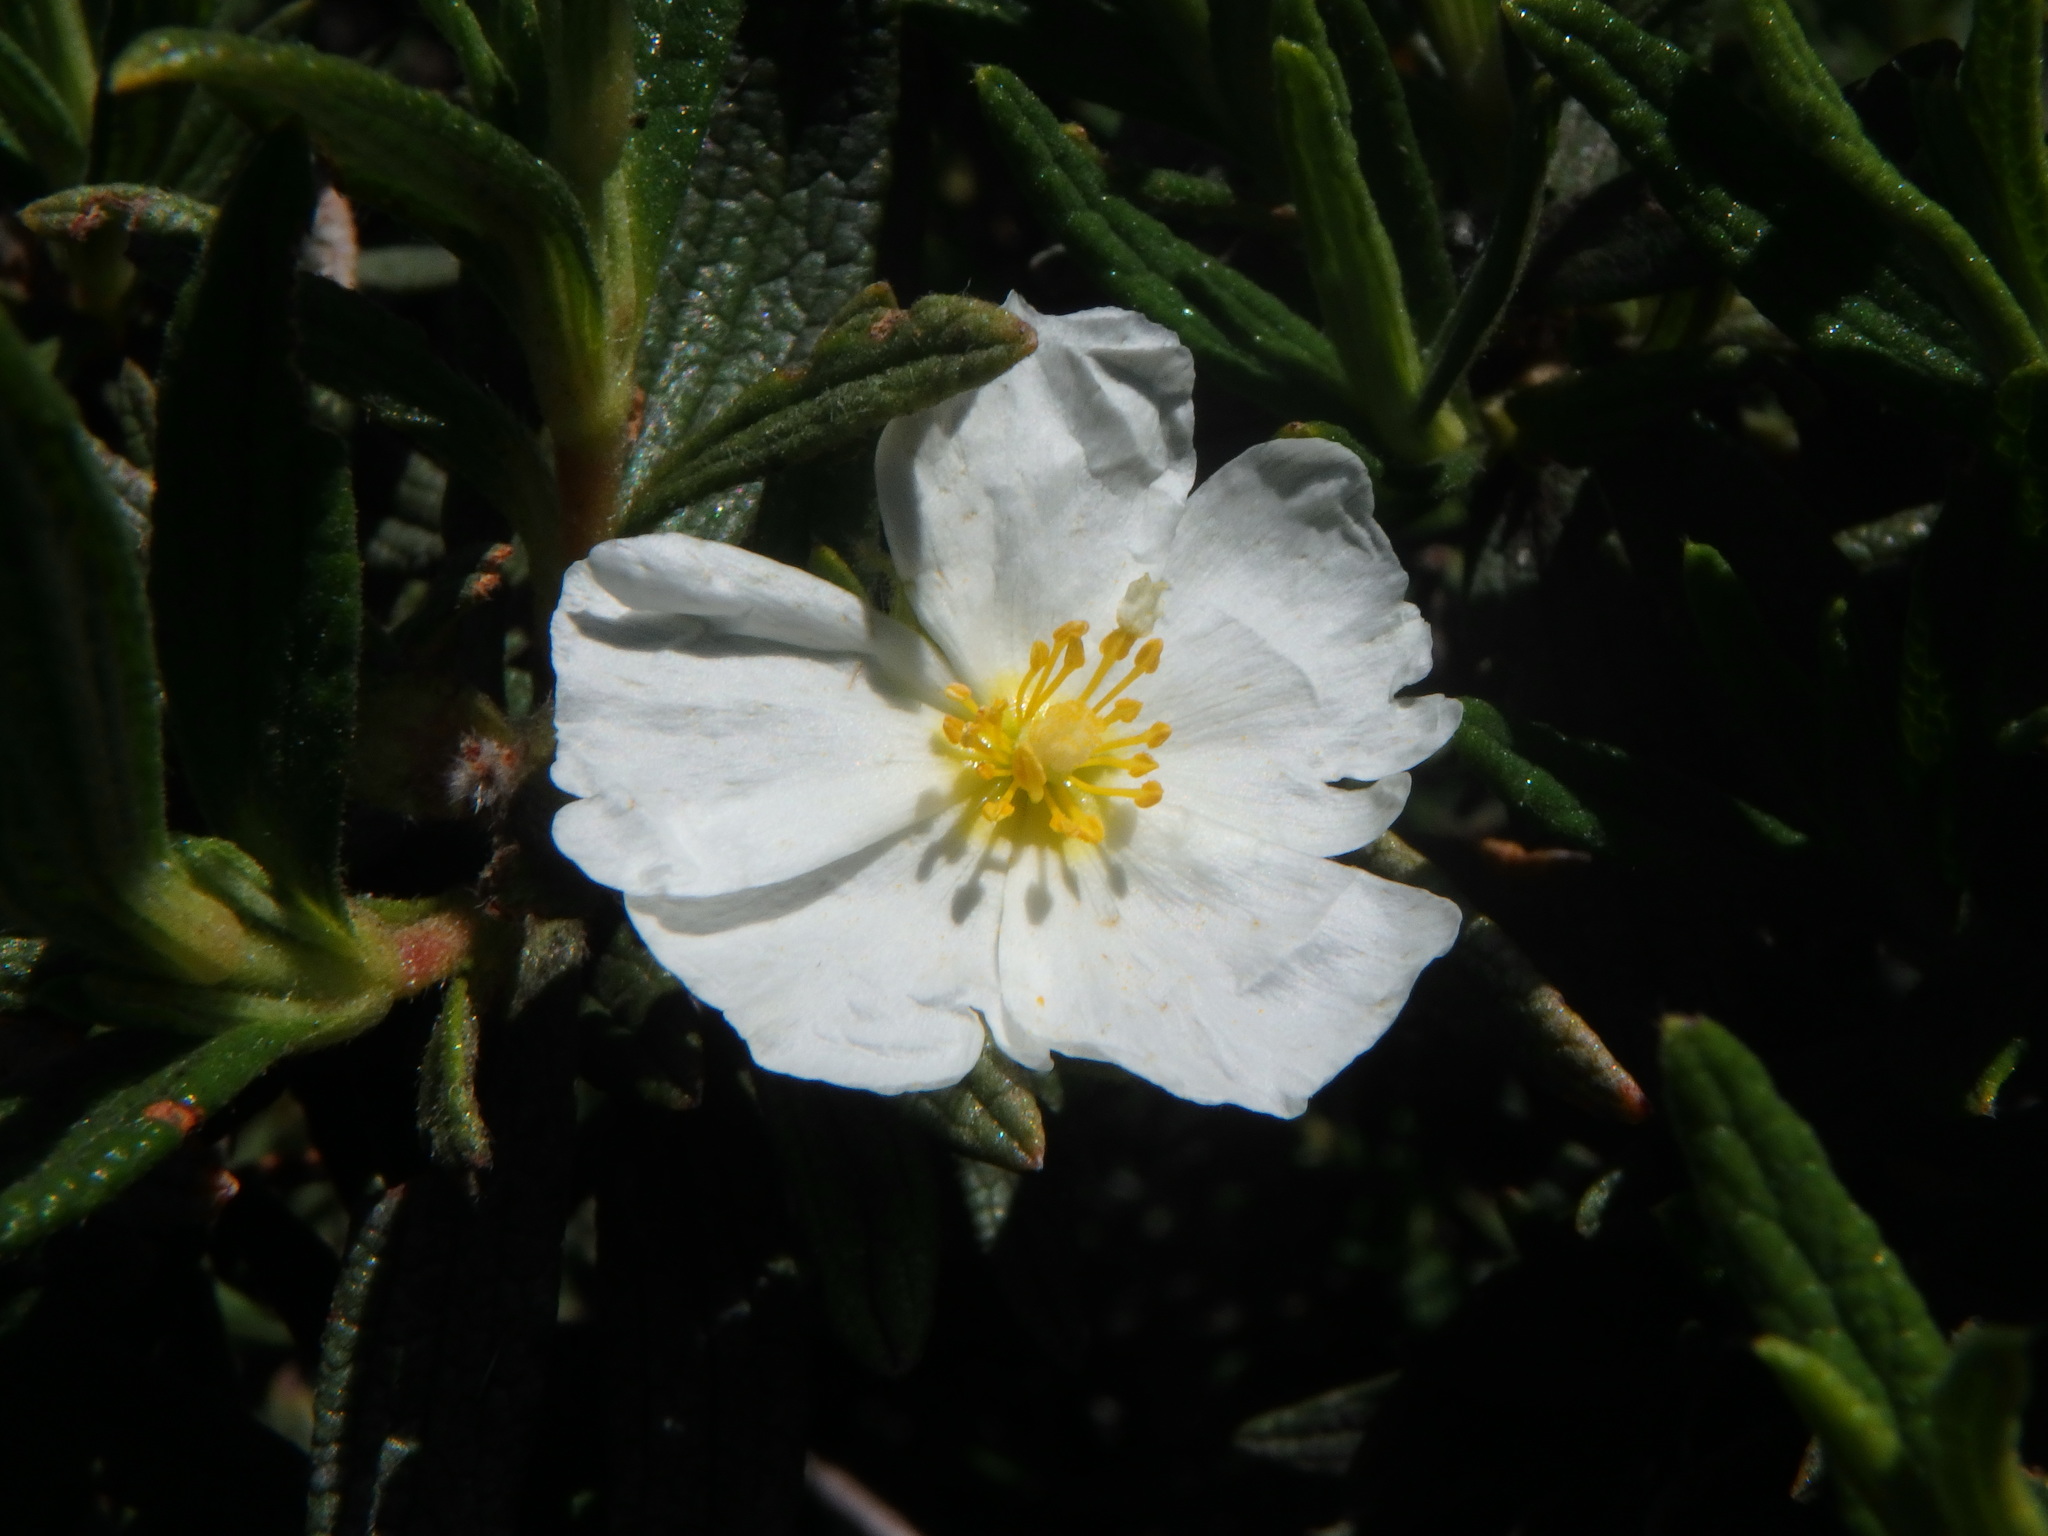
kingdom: Plantae
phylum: Tracheophyta
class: Magnoliopsida
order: Malvales
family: Cistaceae
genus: Cistus
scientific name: Cistus monspeliensis
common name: Montpelier cistus
